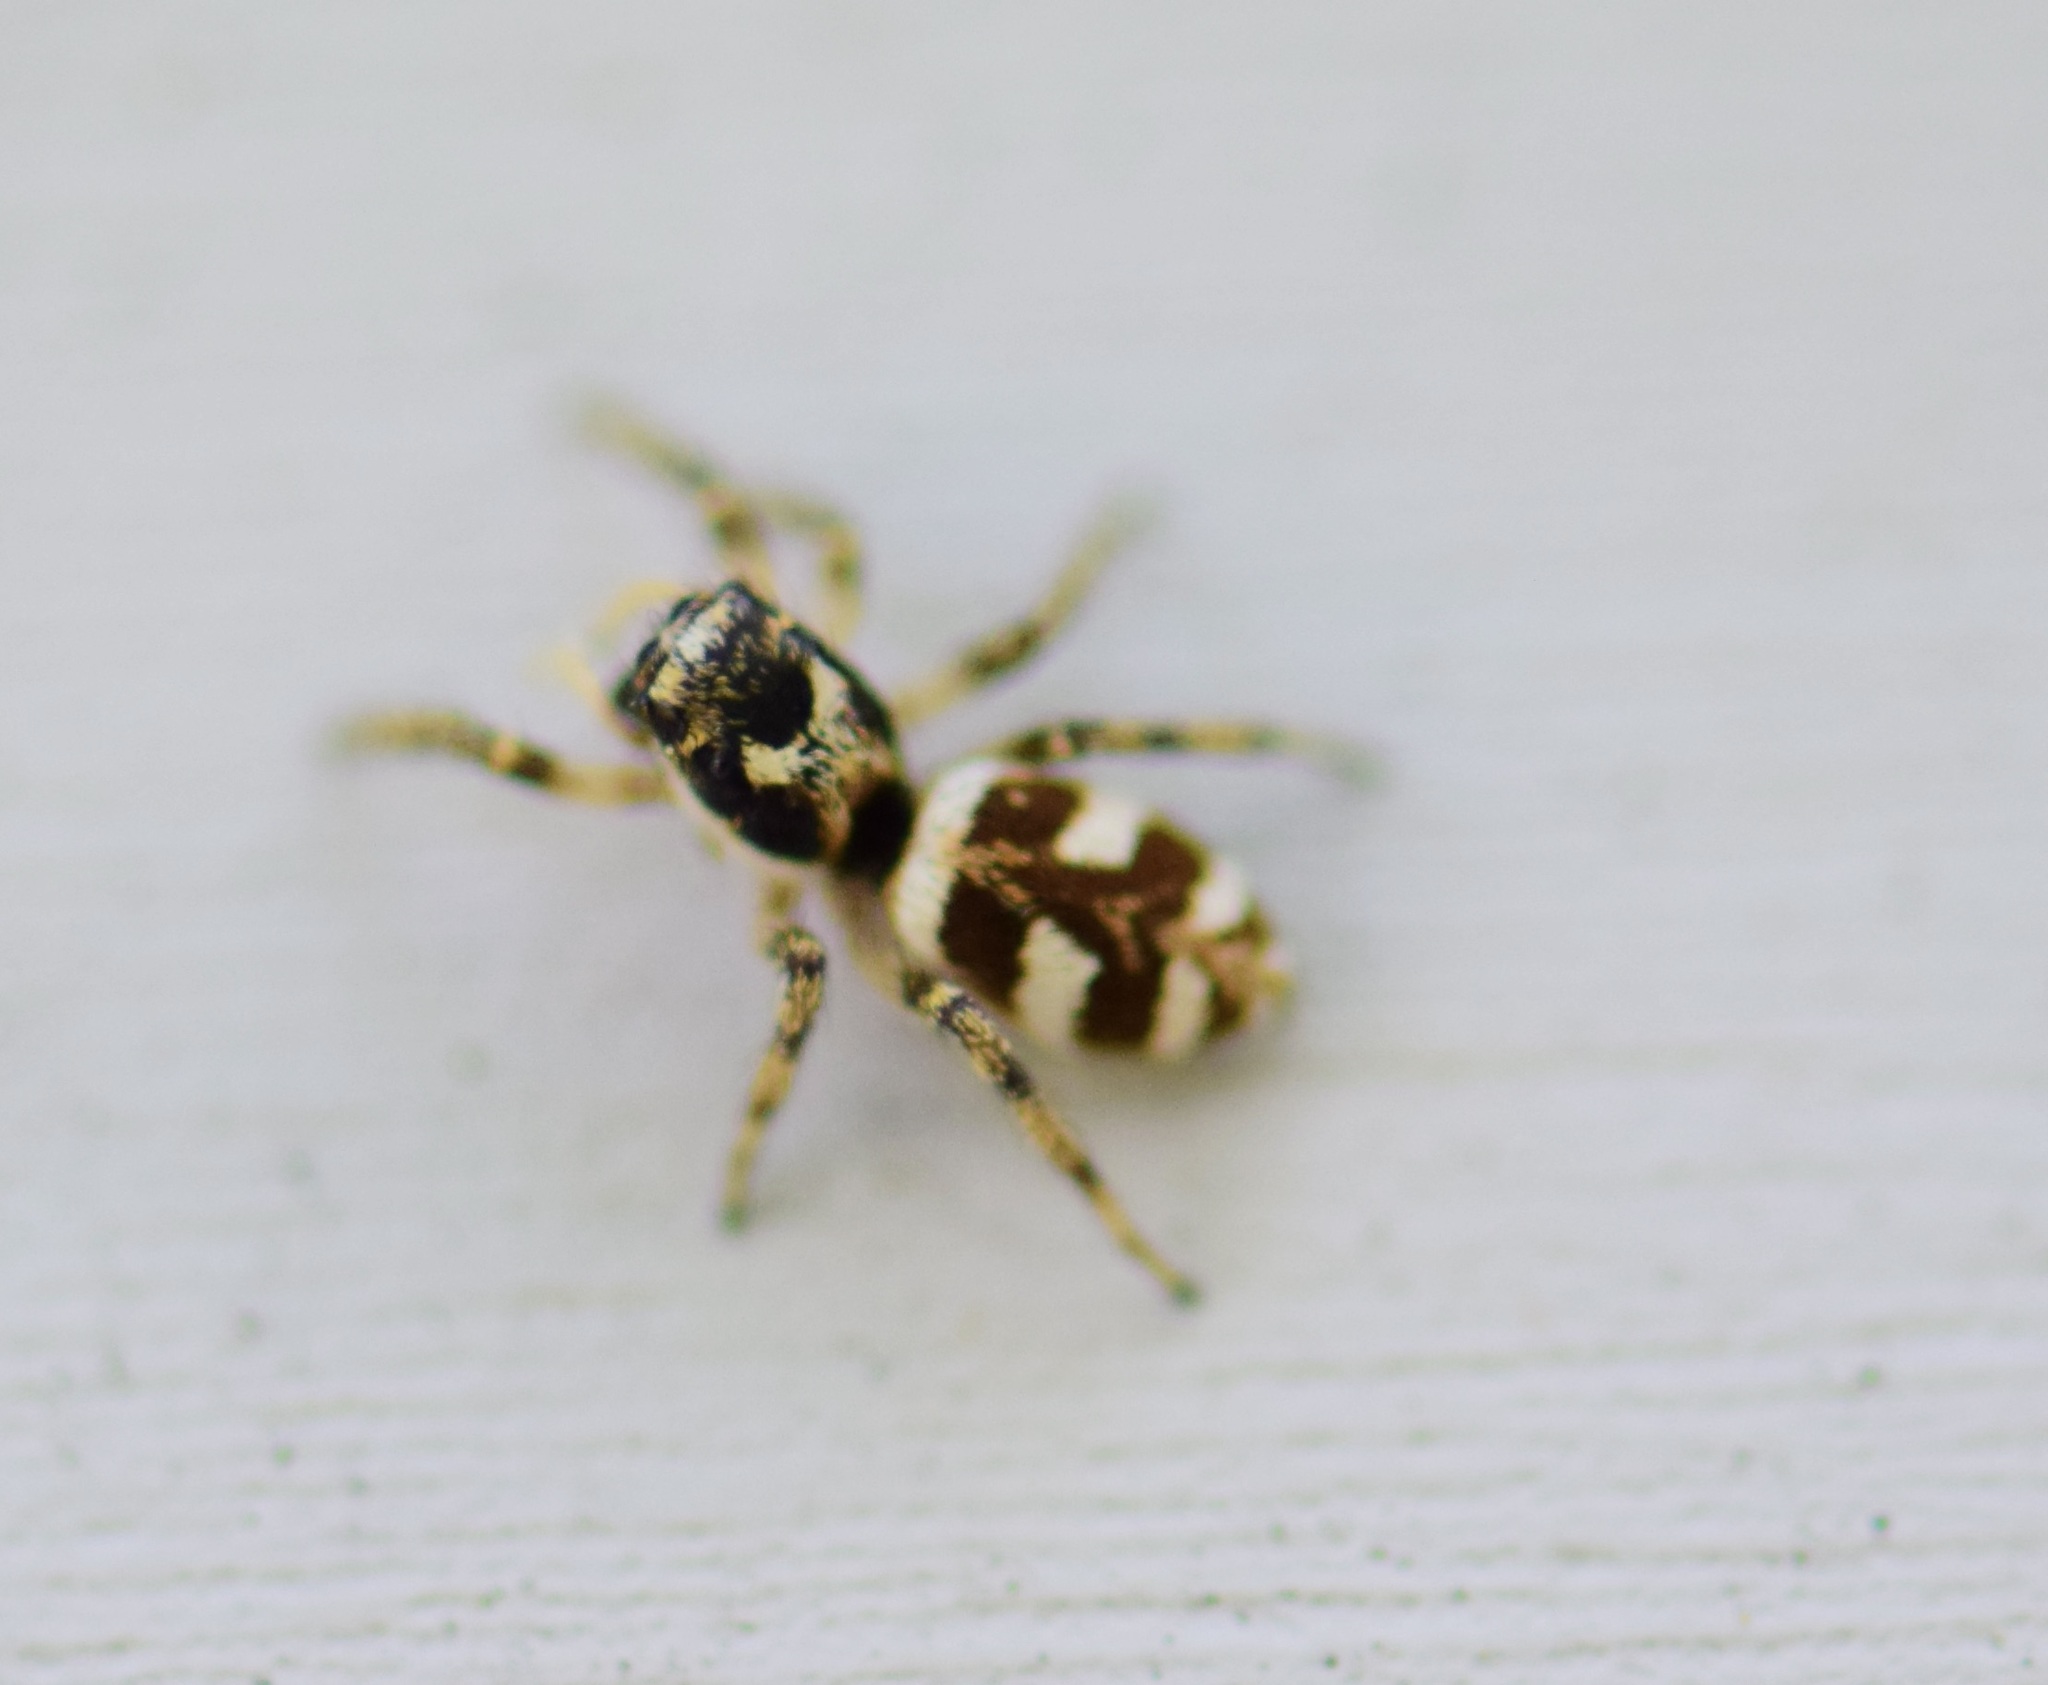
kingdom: Animalia
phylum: Arthropoda
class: Arachnida
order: Araneae
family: Salticidae
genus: Salticus
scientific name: Salticus scenicus
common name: Zebra jumper
